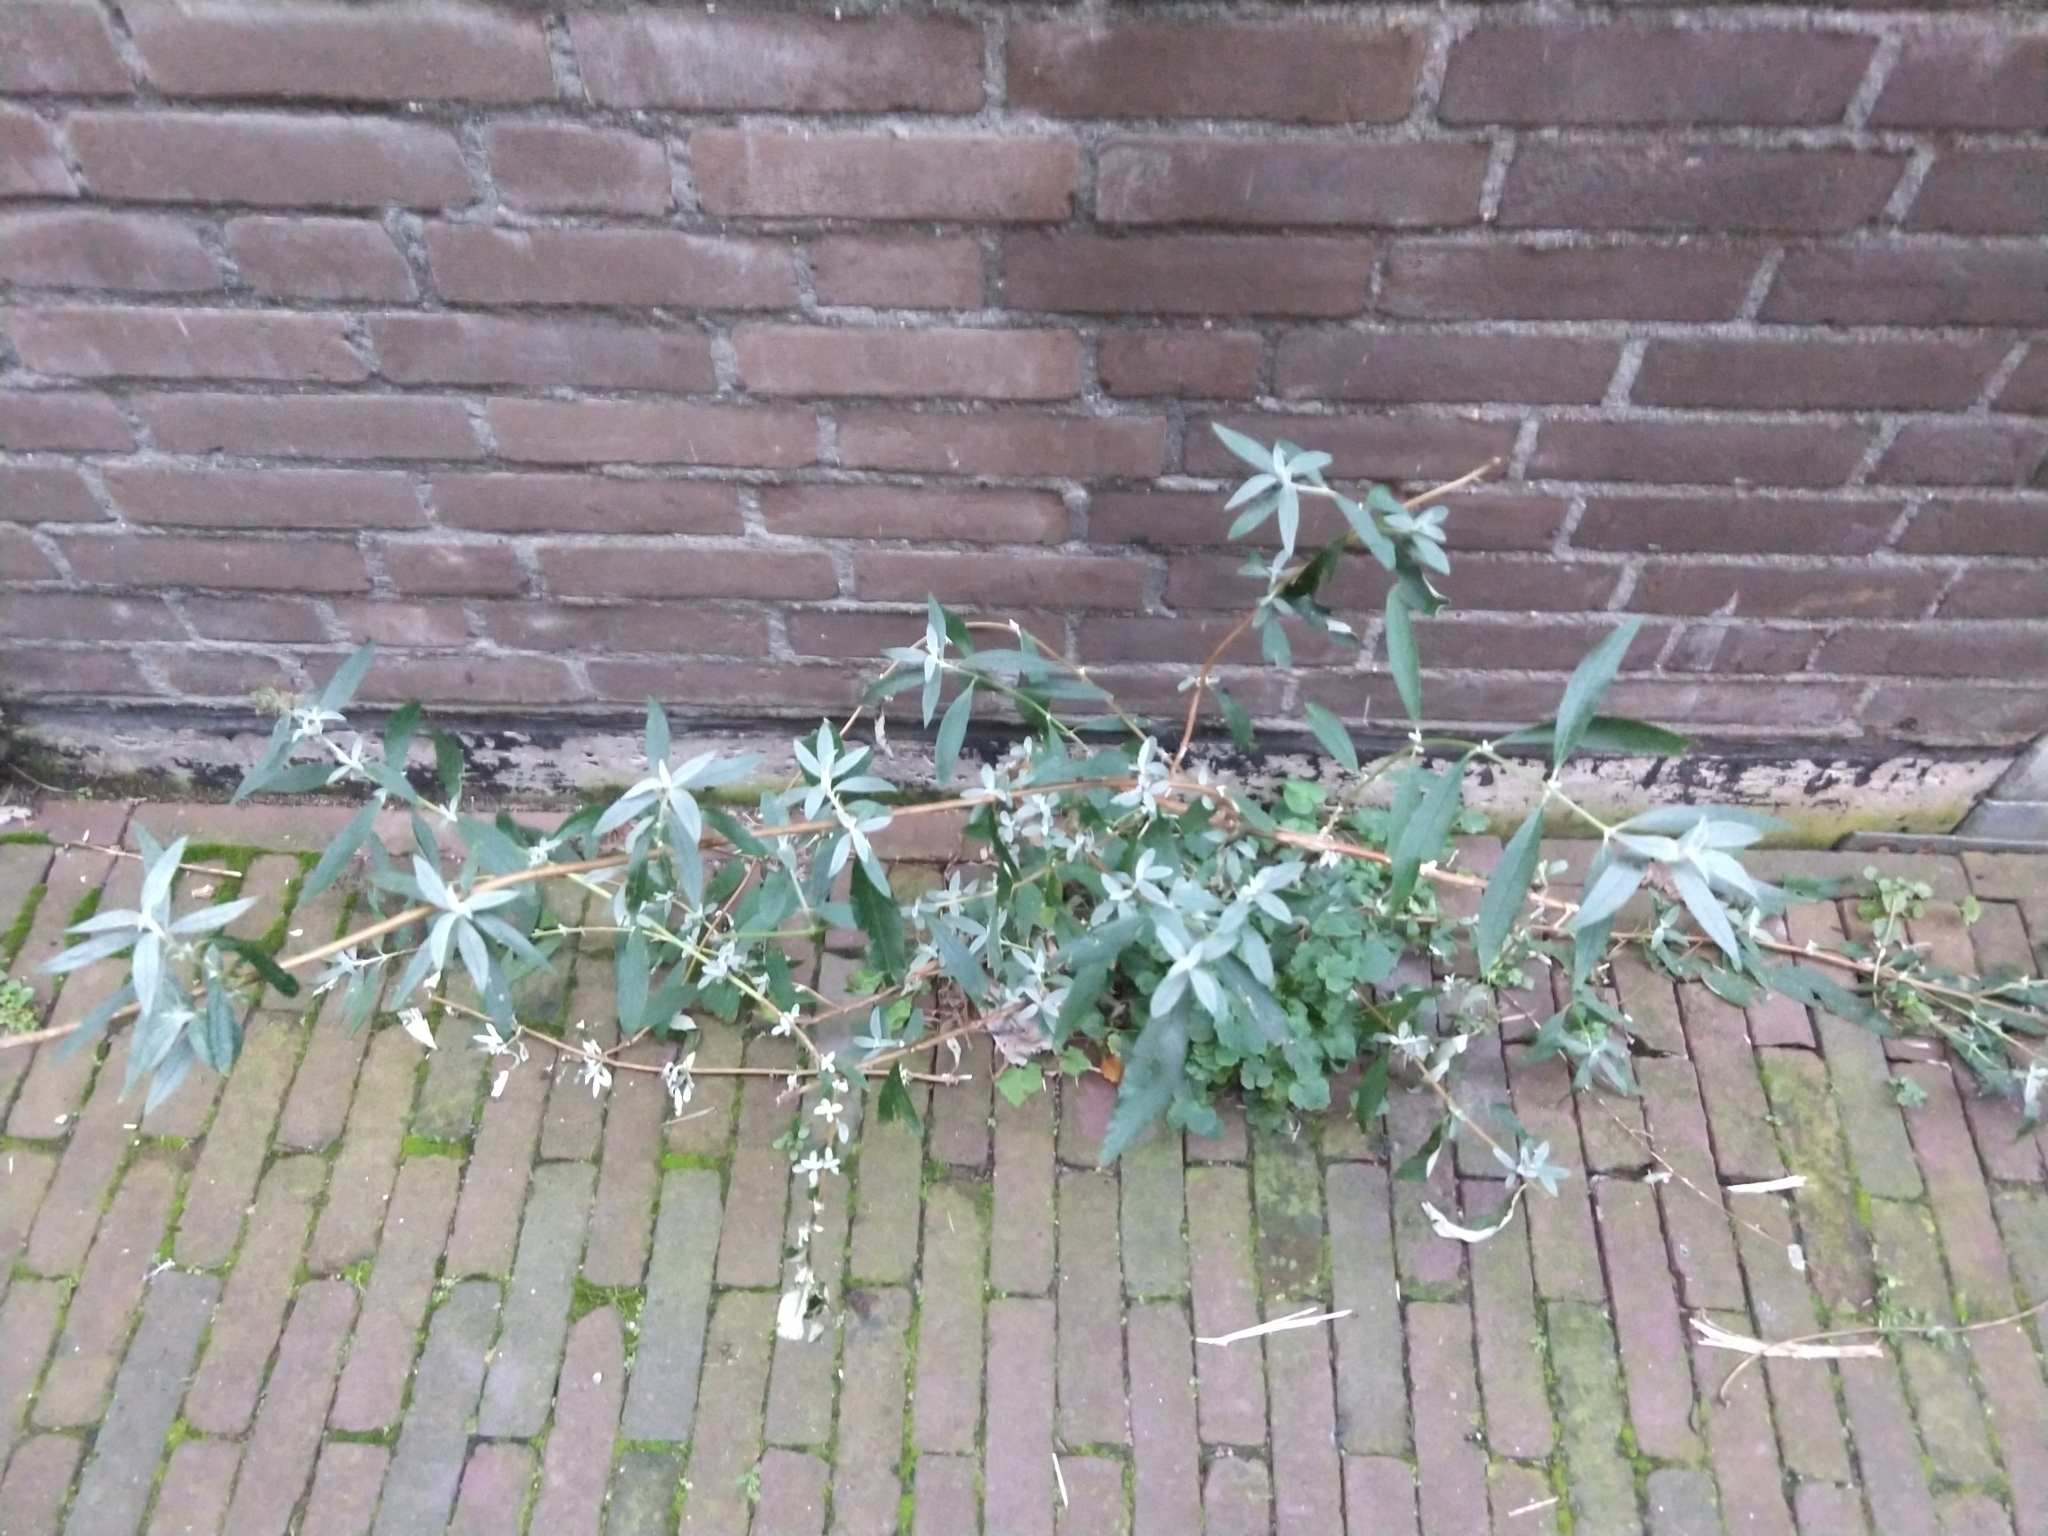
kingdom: Plantae
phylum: Tracheophyta
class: Magnoliopsida
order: Lamiales
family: Scrophulariaceae
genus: Buddleja
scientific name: Buddleja davidii
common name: Butterfly-bush
